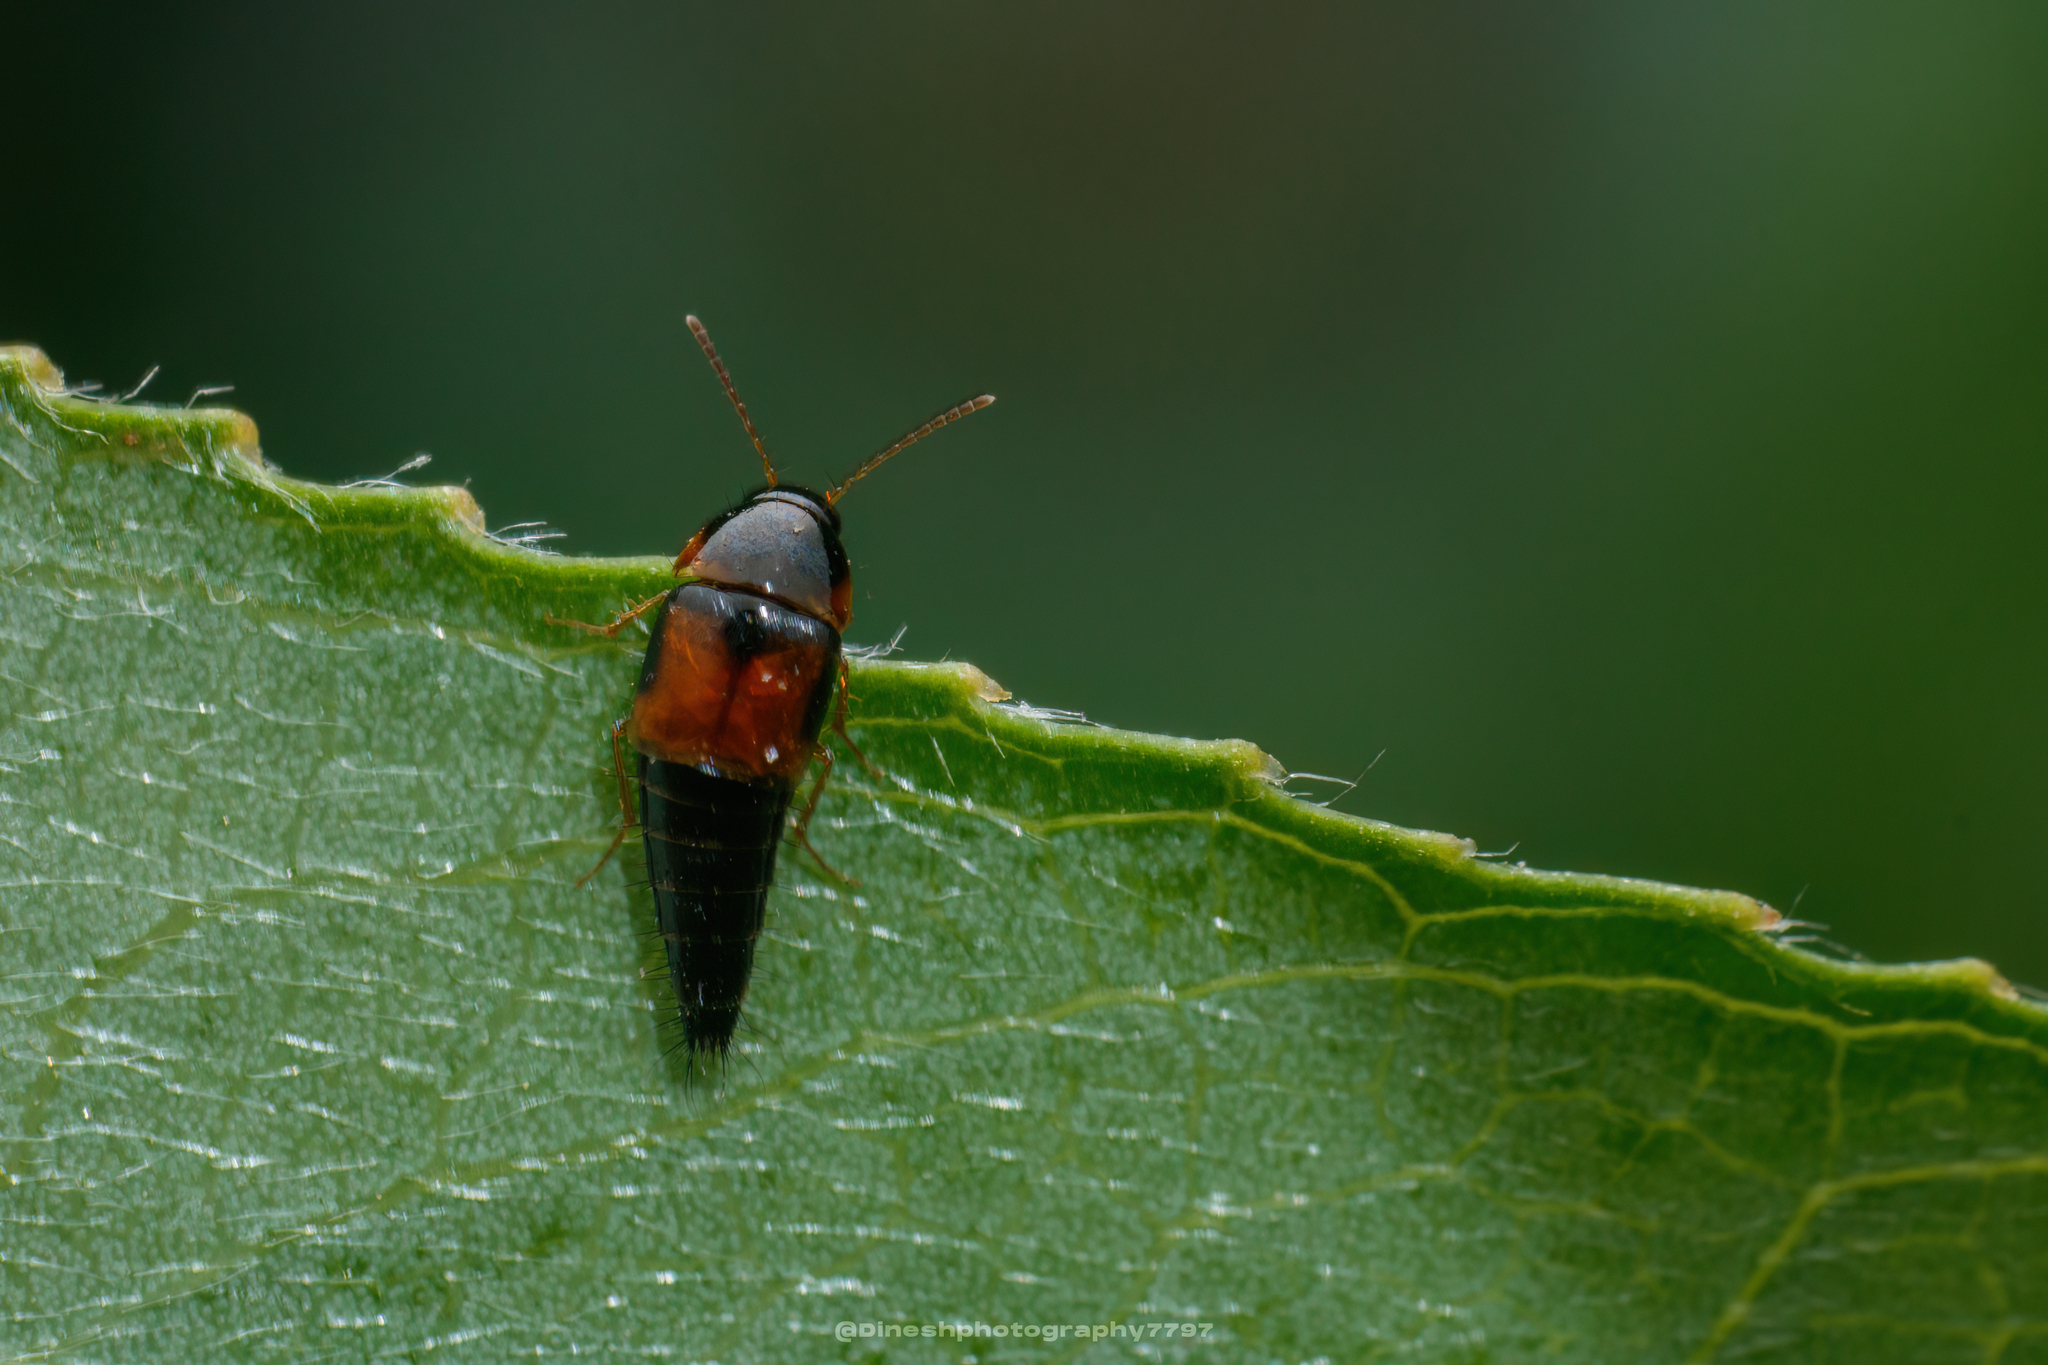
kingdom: Animalia
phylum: Arthropoda
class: Insecta
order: Coleoptera
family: Staphylinidae
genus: Tachyporus
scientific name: Tachyporus hypnorum
